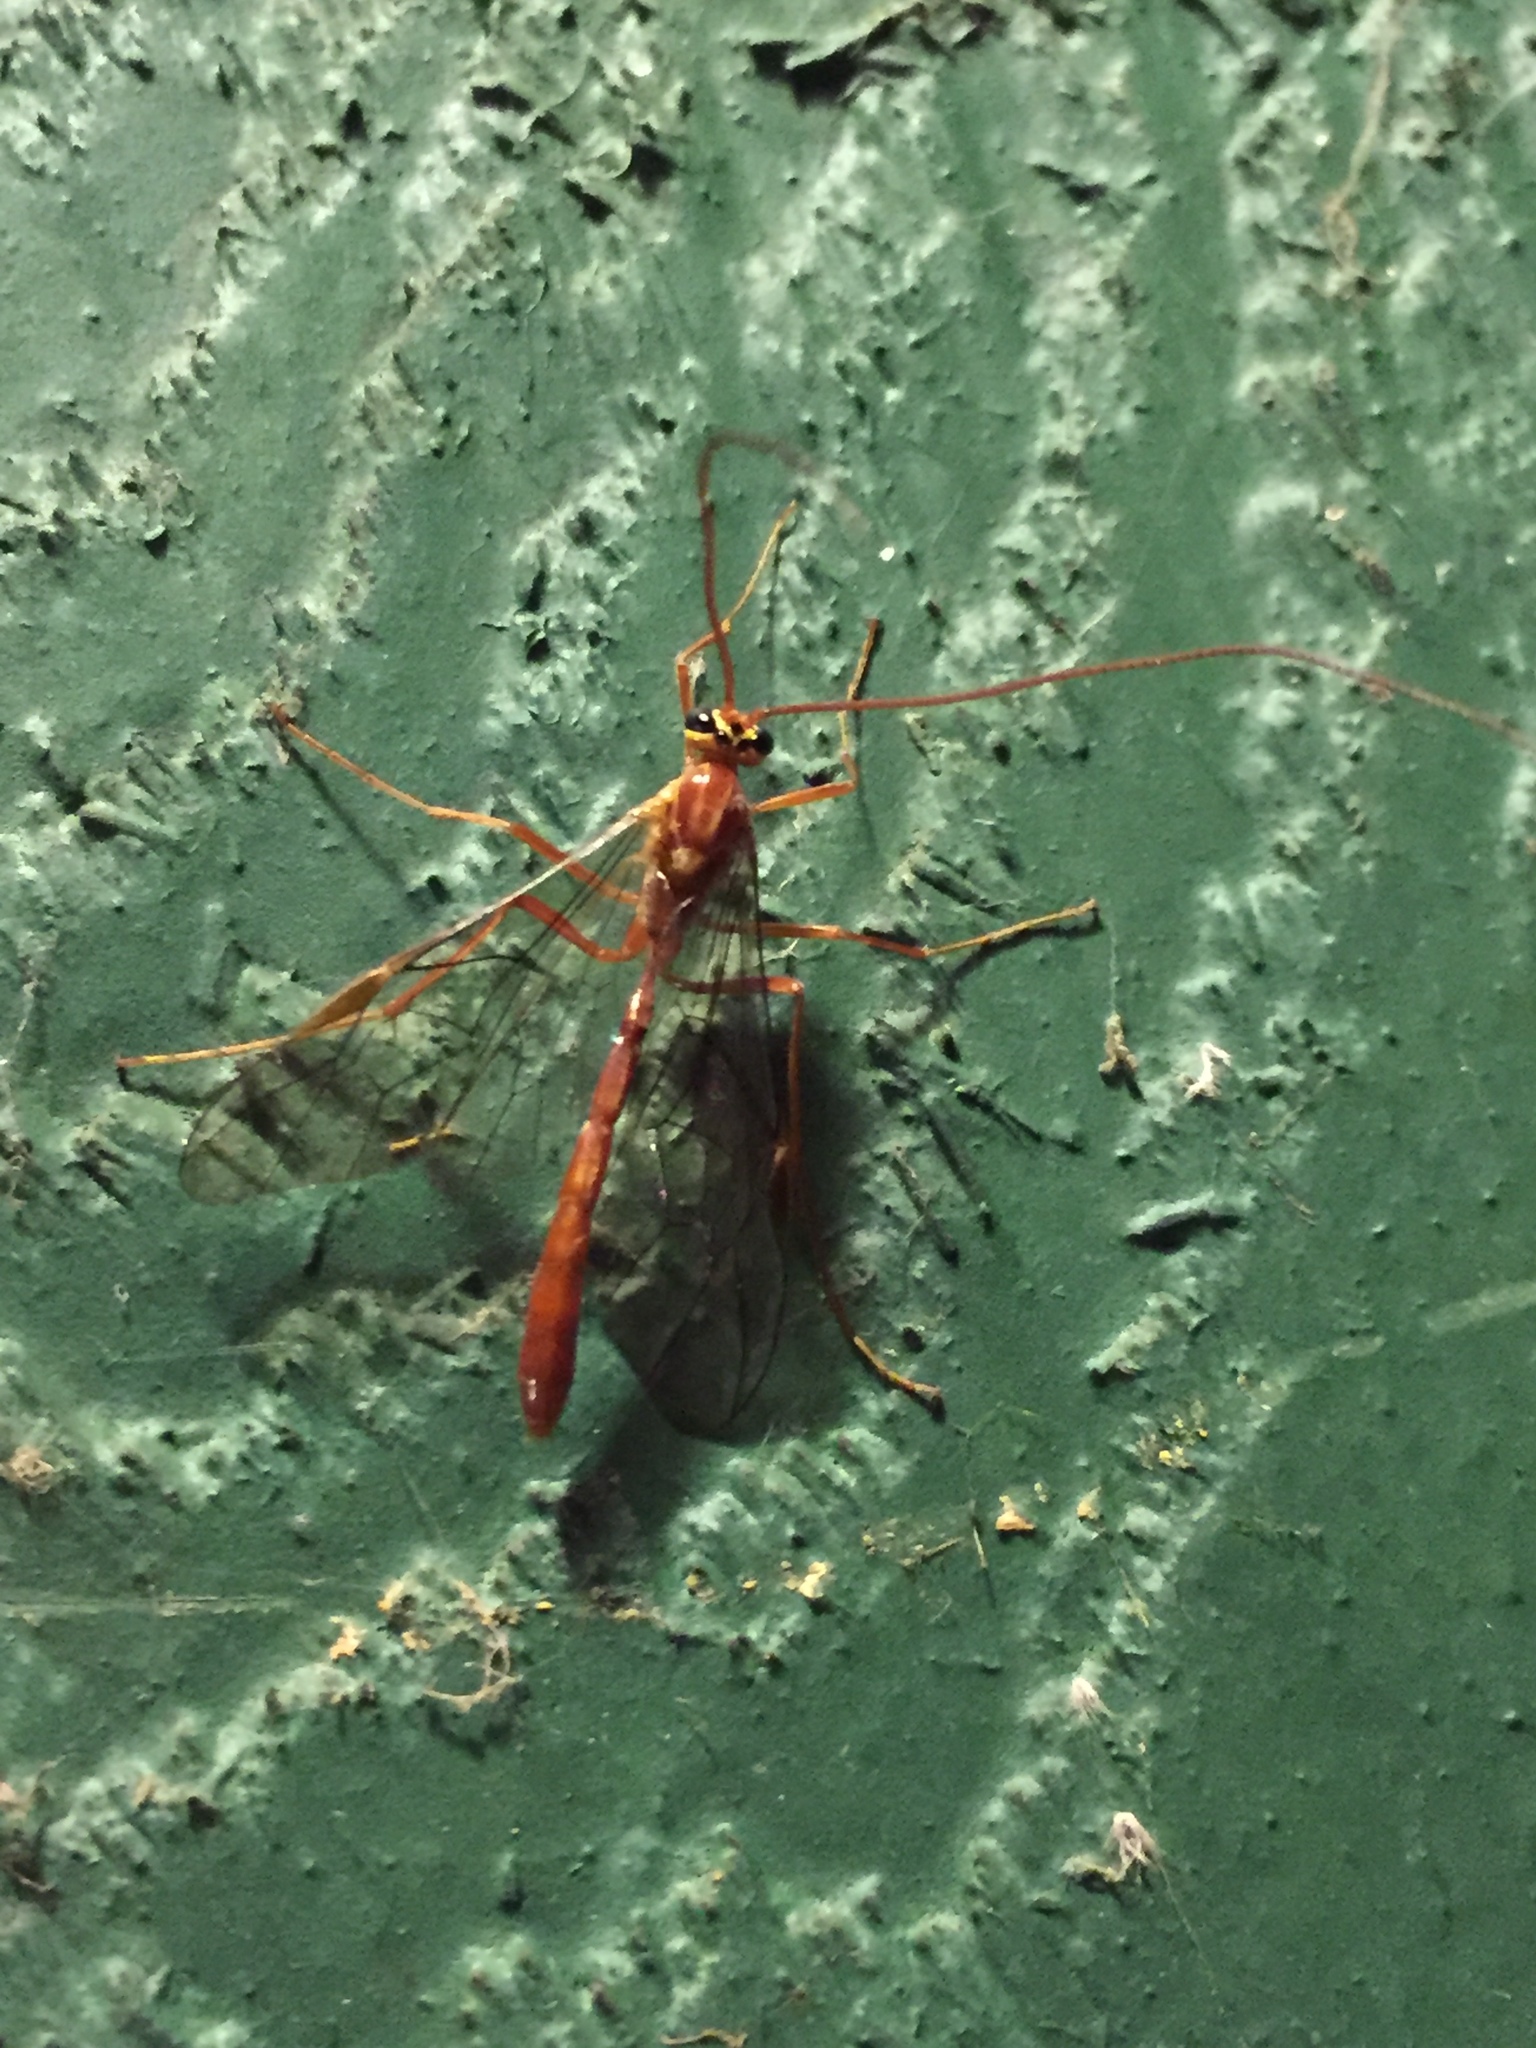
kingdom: Animalia
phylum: Arthropoda
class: Insecta
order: Hymenoptera
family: Ichneumonidae
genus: Ophion
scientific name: Ophion
